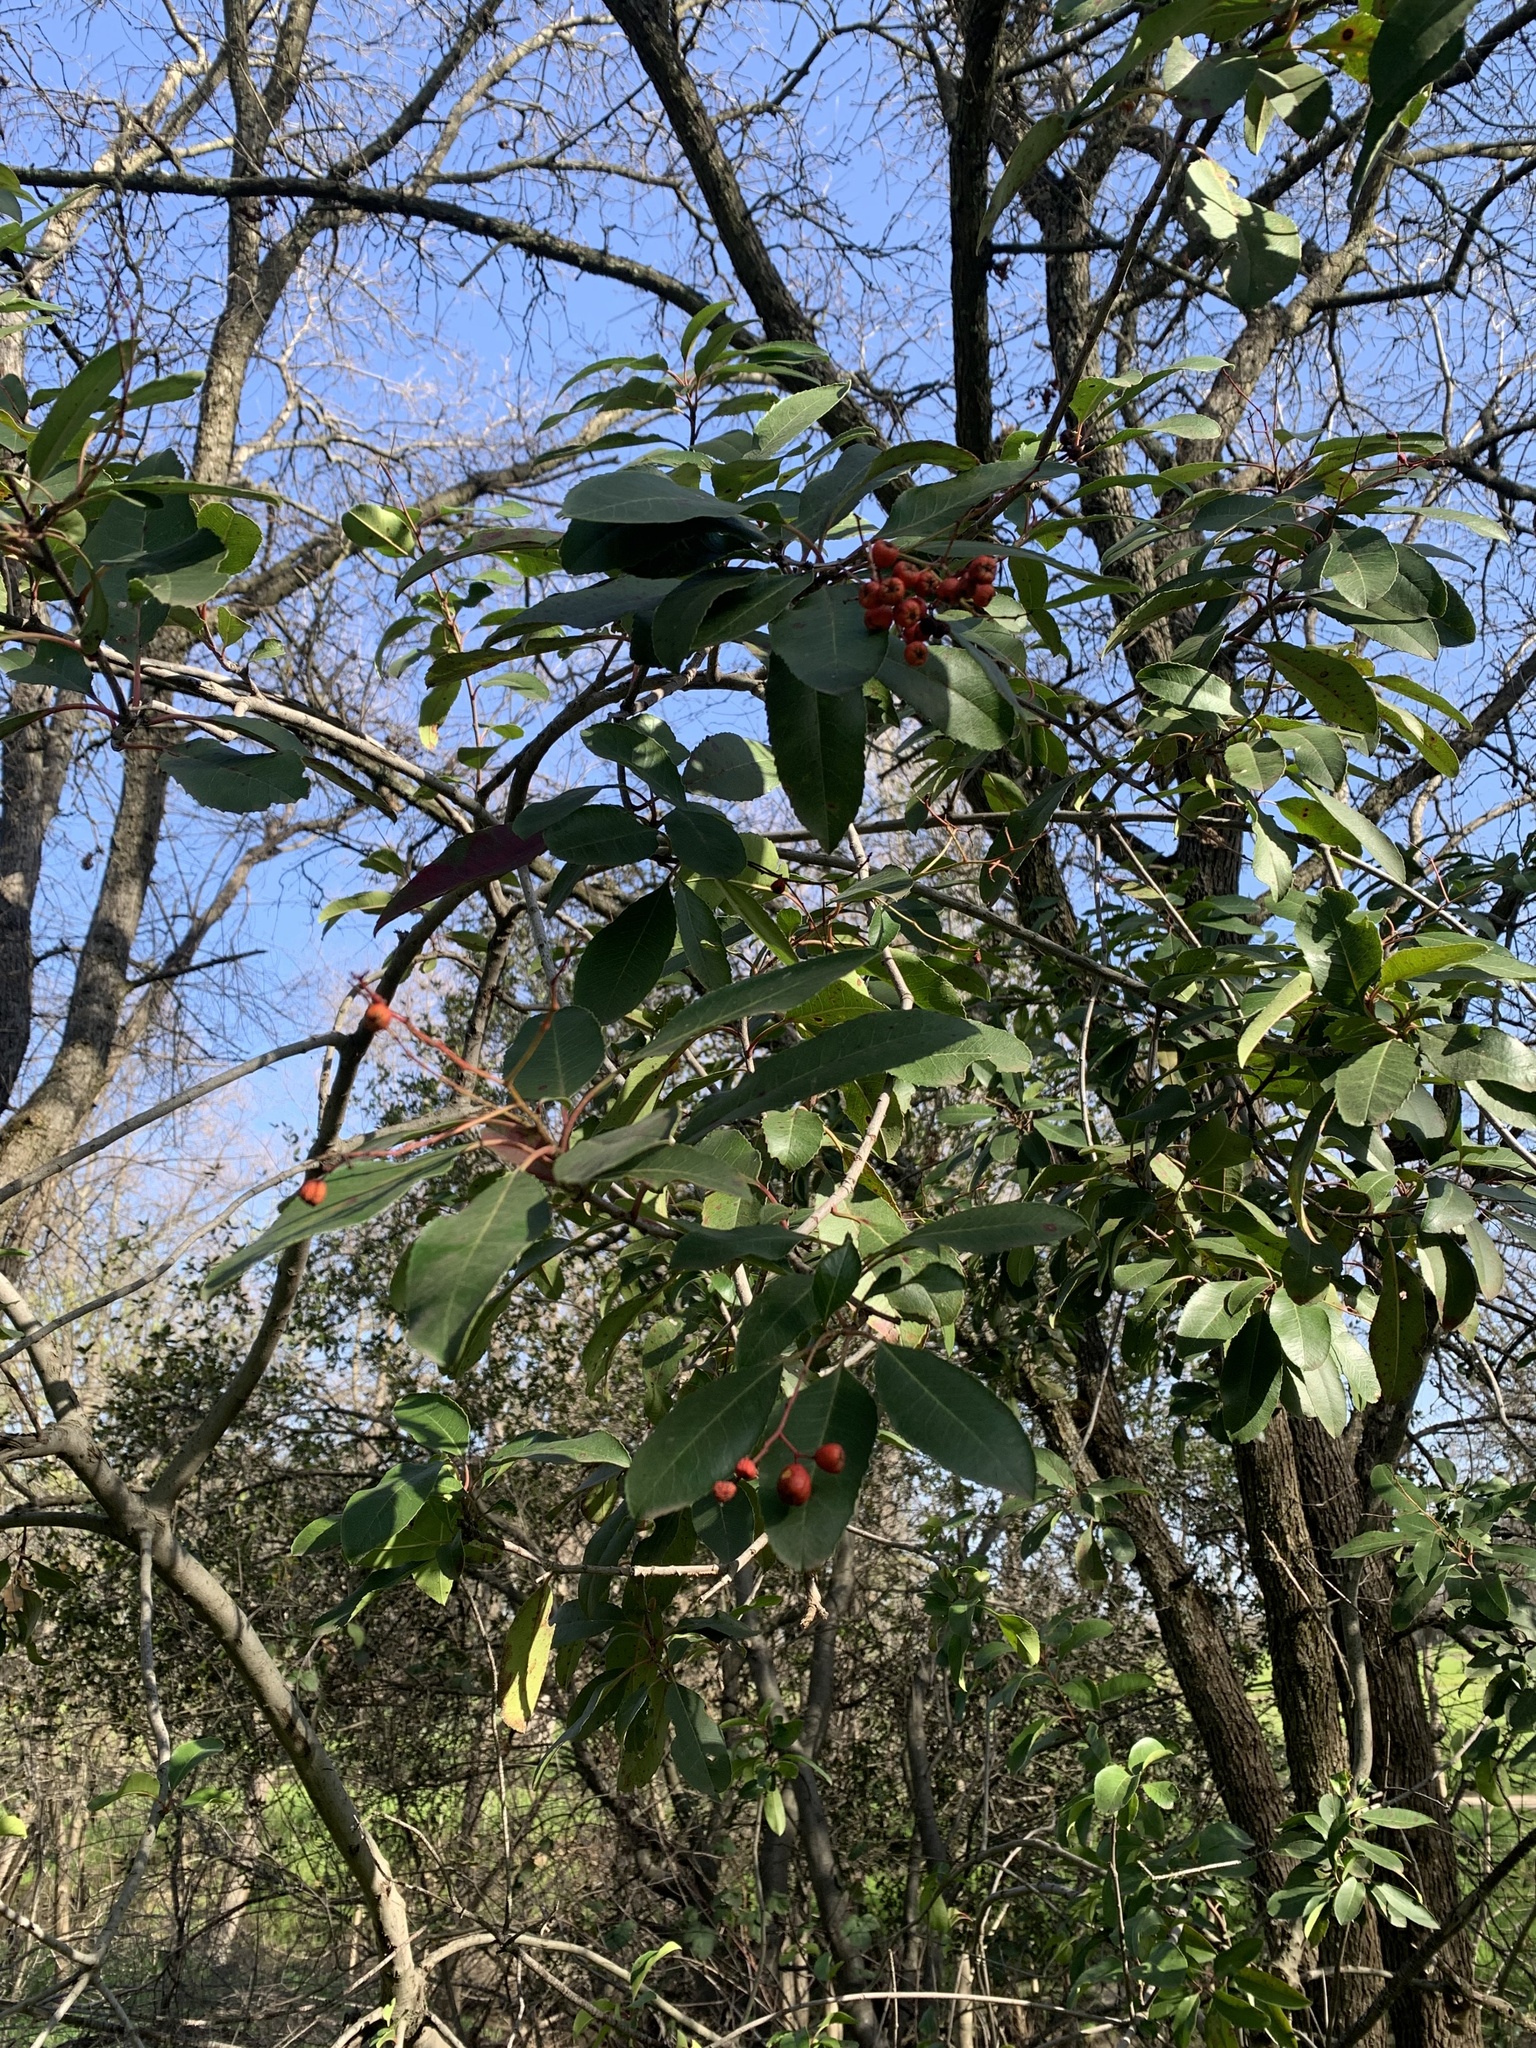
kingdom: Plantae
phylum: Tracheophyta
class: Magnoliopsida
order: Rosales
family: Rosaceae
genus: Heteromeles
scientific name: Heteromeles arbutifolia
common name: California-holly
